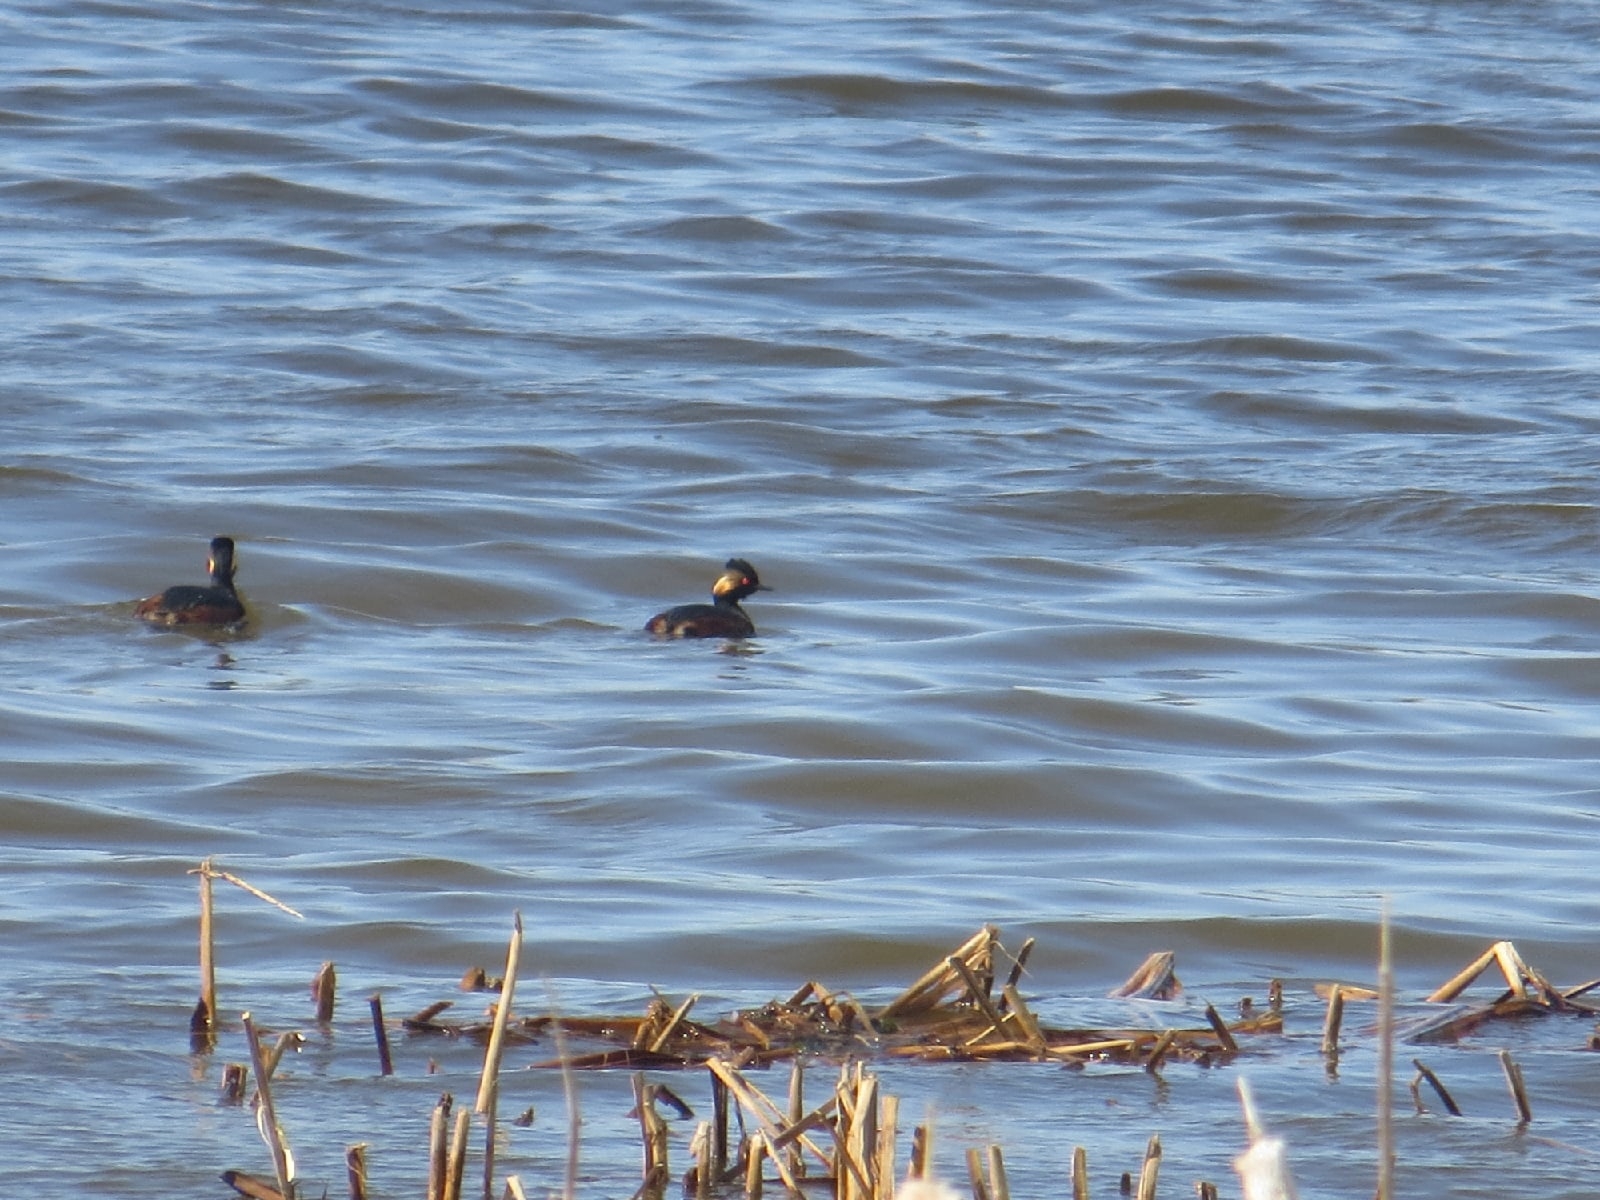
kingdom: Animalia
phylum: Chordata
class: Aves
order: Podicipediformes
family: Podicipedidae
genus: Podiceps
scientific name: Podiceps nigricollis
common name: Black-necked grebe
